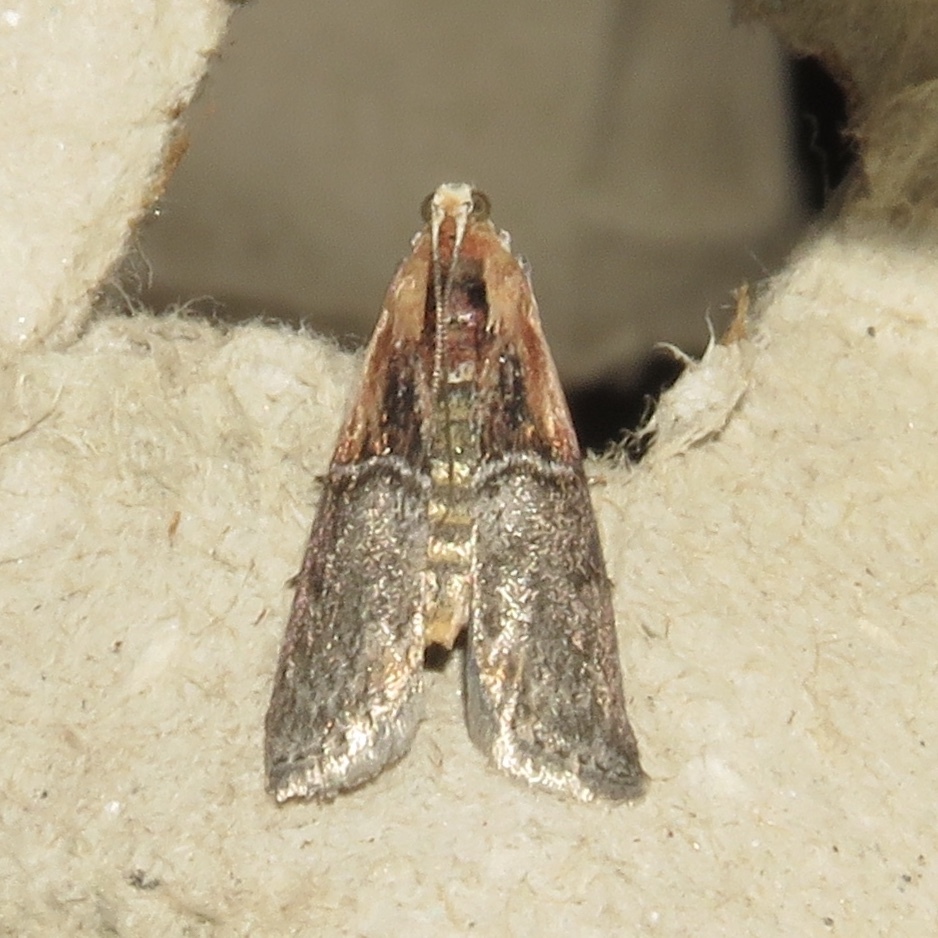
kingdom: Animalia
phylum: Arthropoda
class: Insecta
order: Lepidoptera
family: Pyralidae
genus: Sciota
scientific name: Sciota basilaris
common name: Yellow-shouldered leafroller
